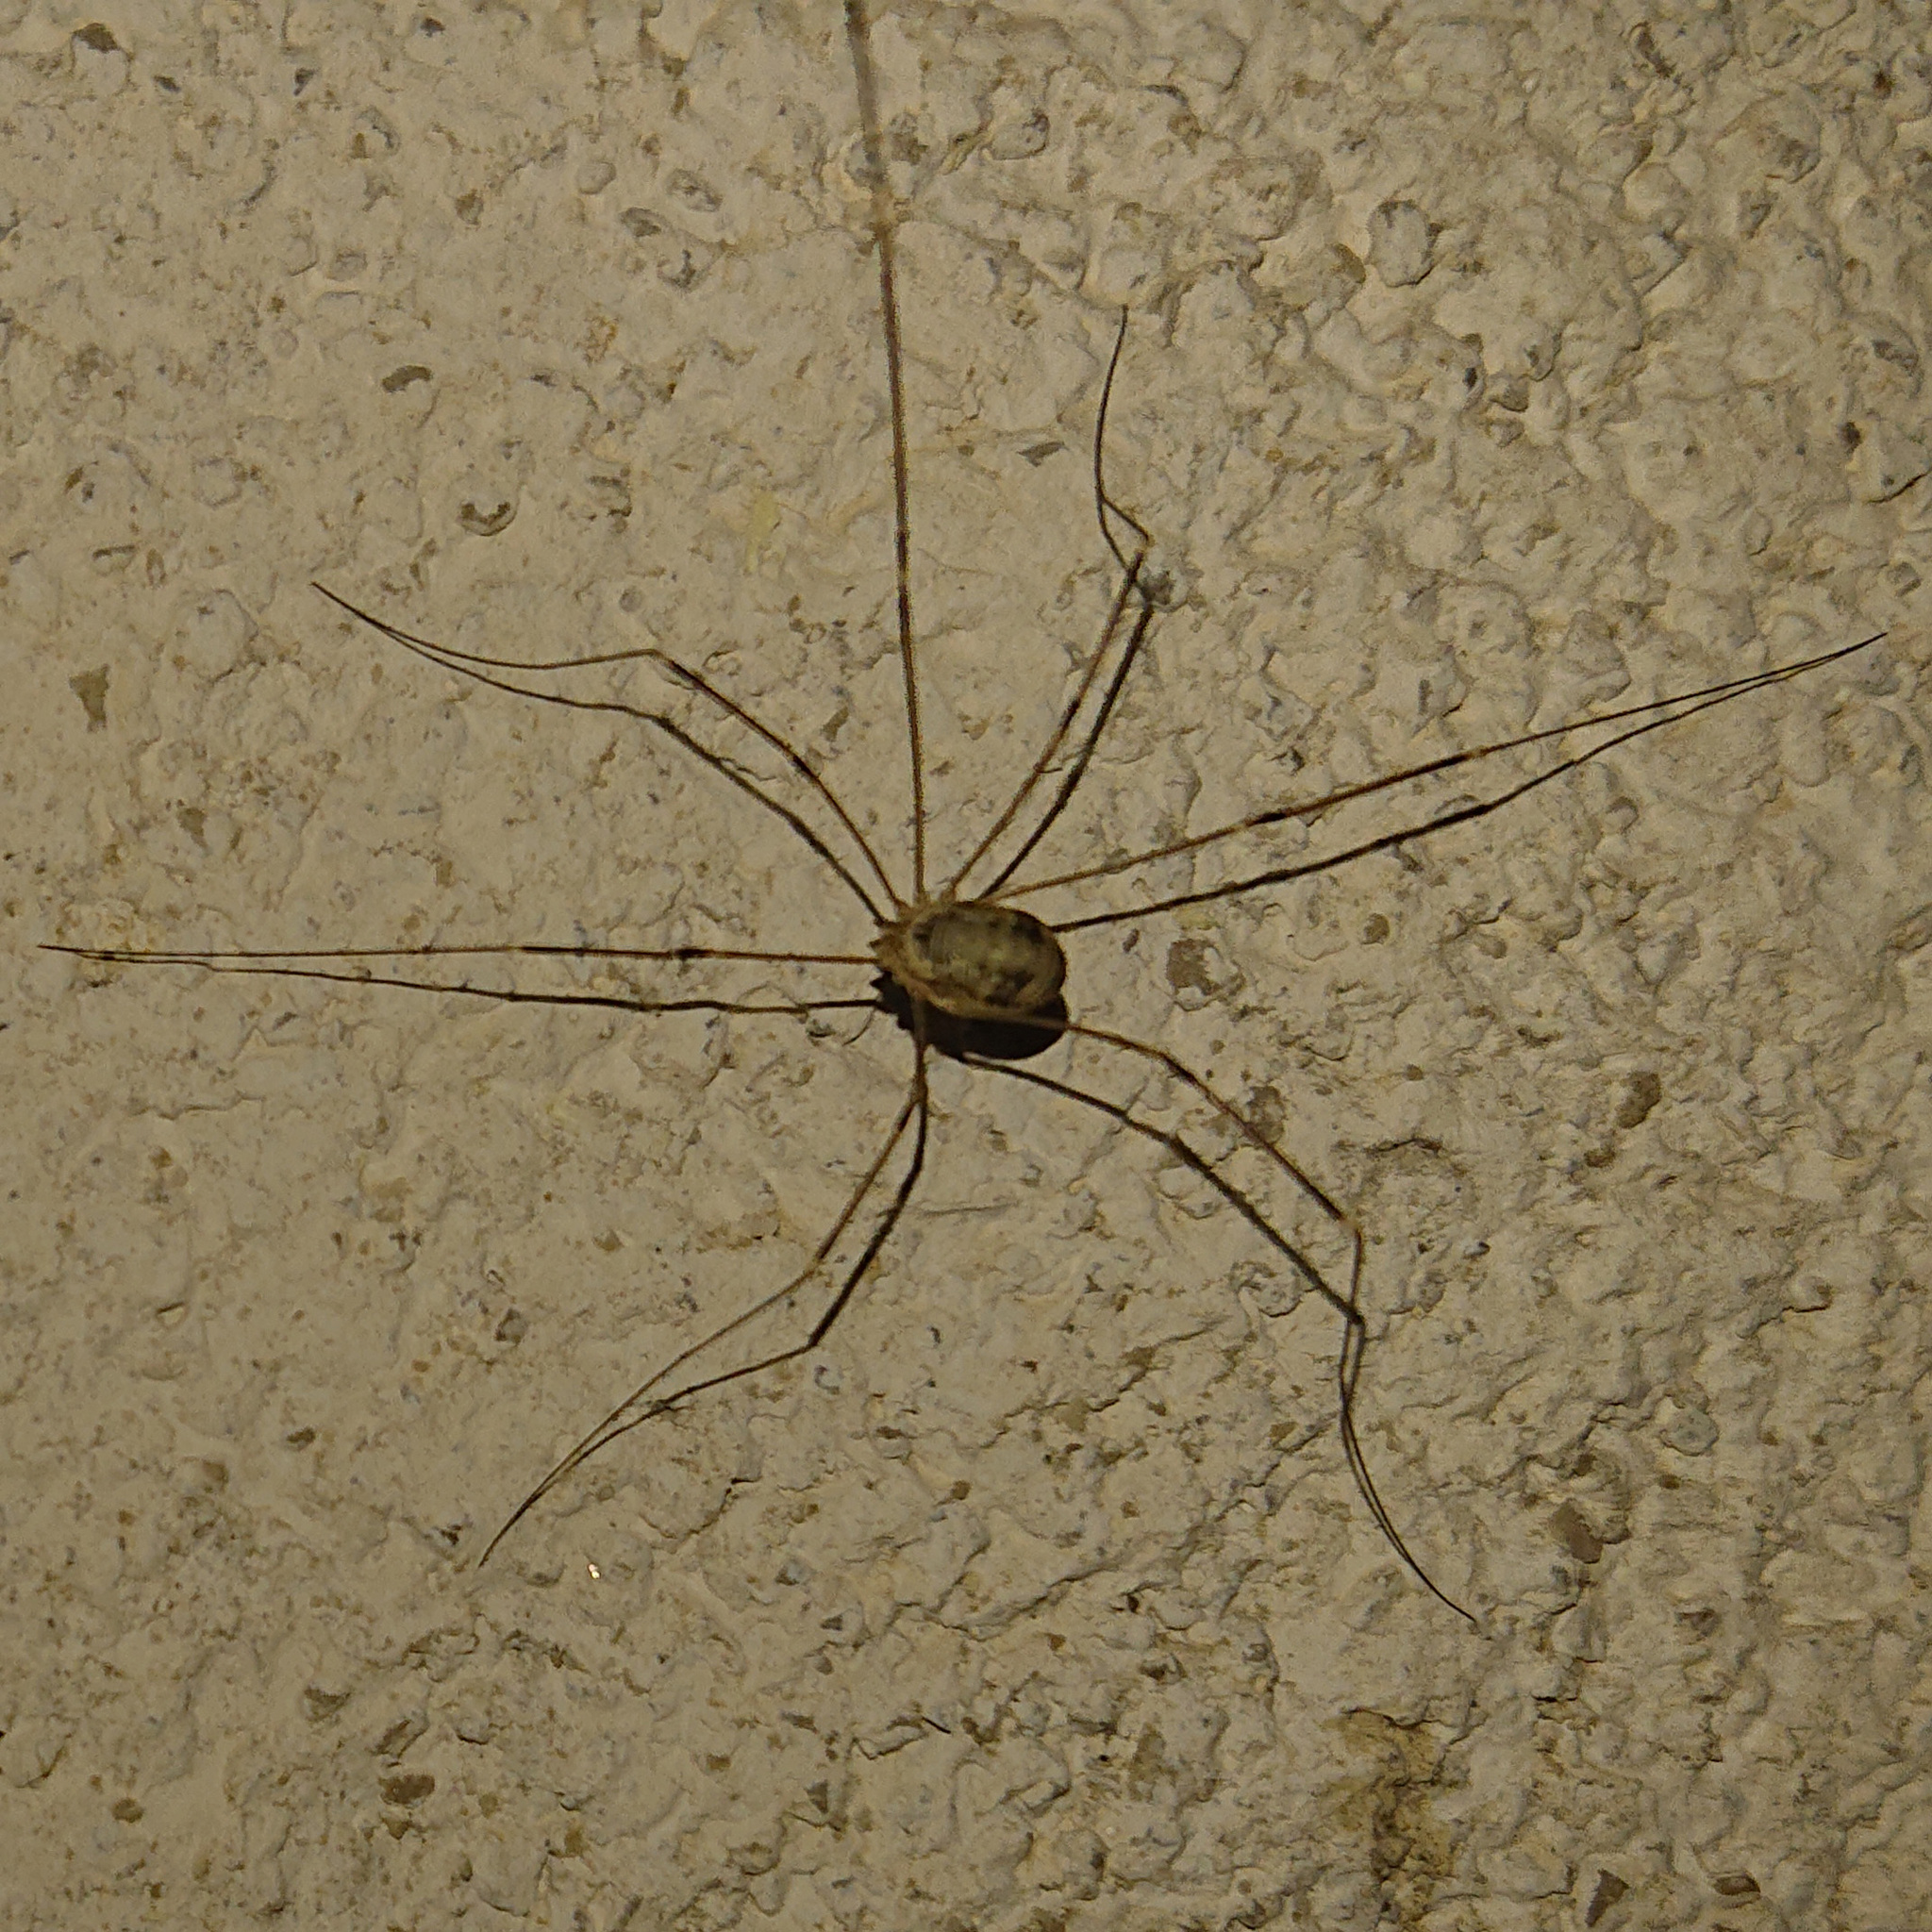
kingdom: Animalia
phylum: Arthropoda
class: Arachnida
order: Opiliones
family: Sclerosomatidae
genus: Leiobunum
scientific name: Leiobunum limbatum
